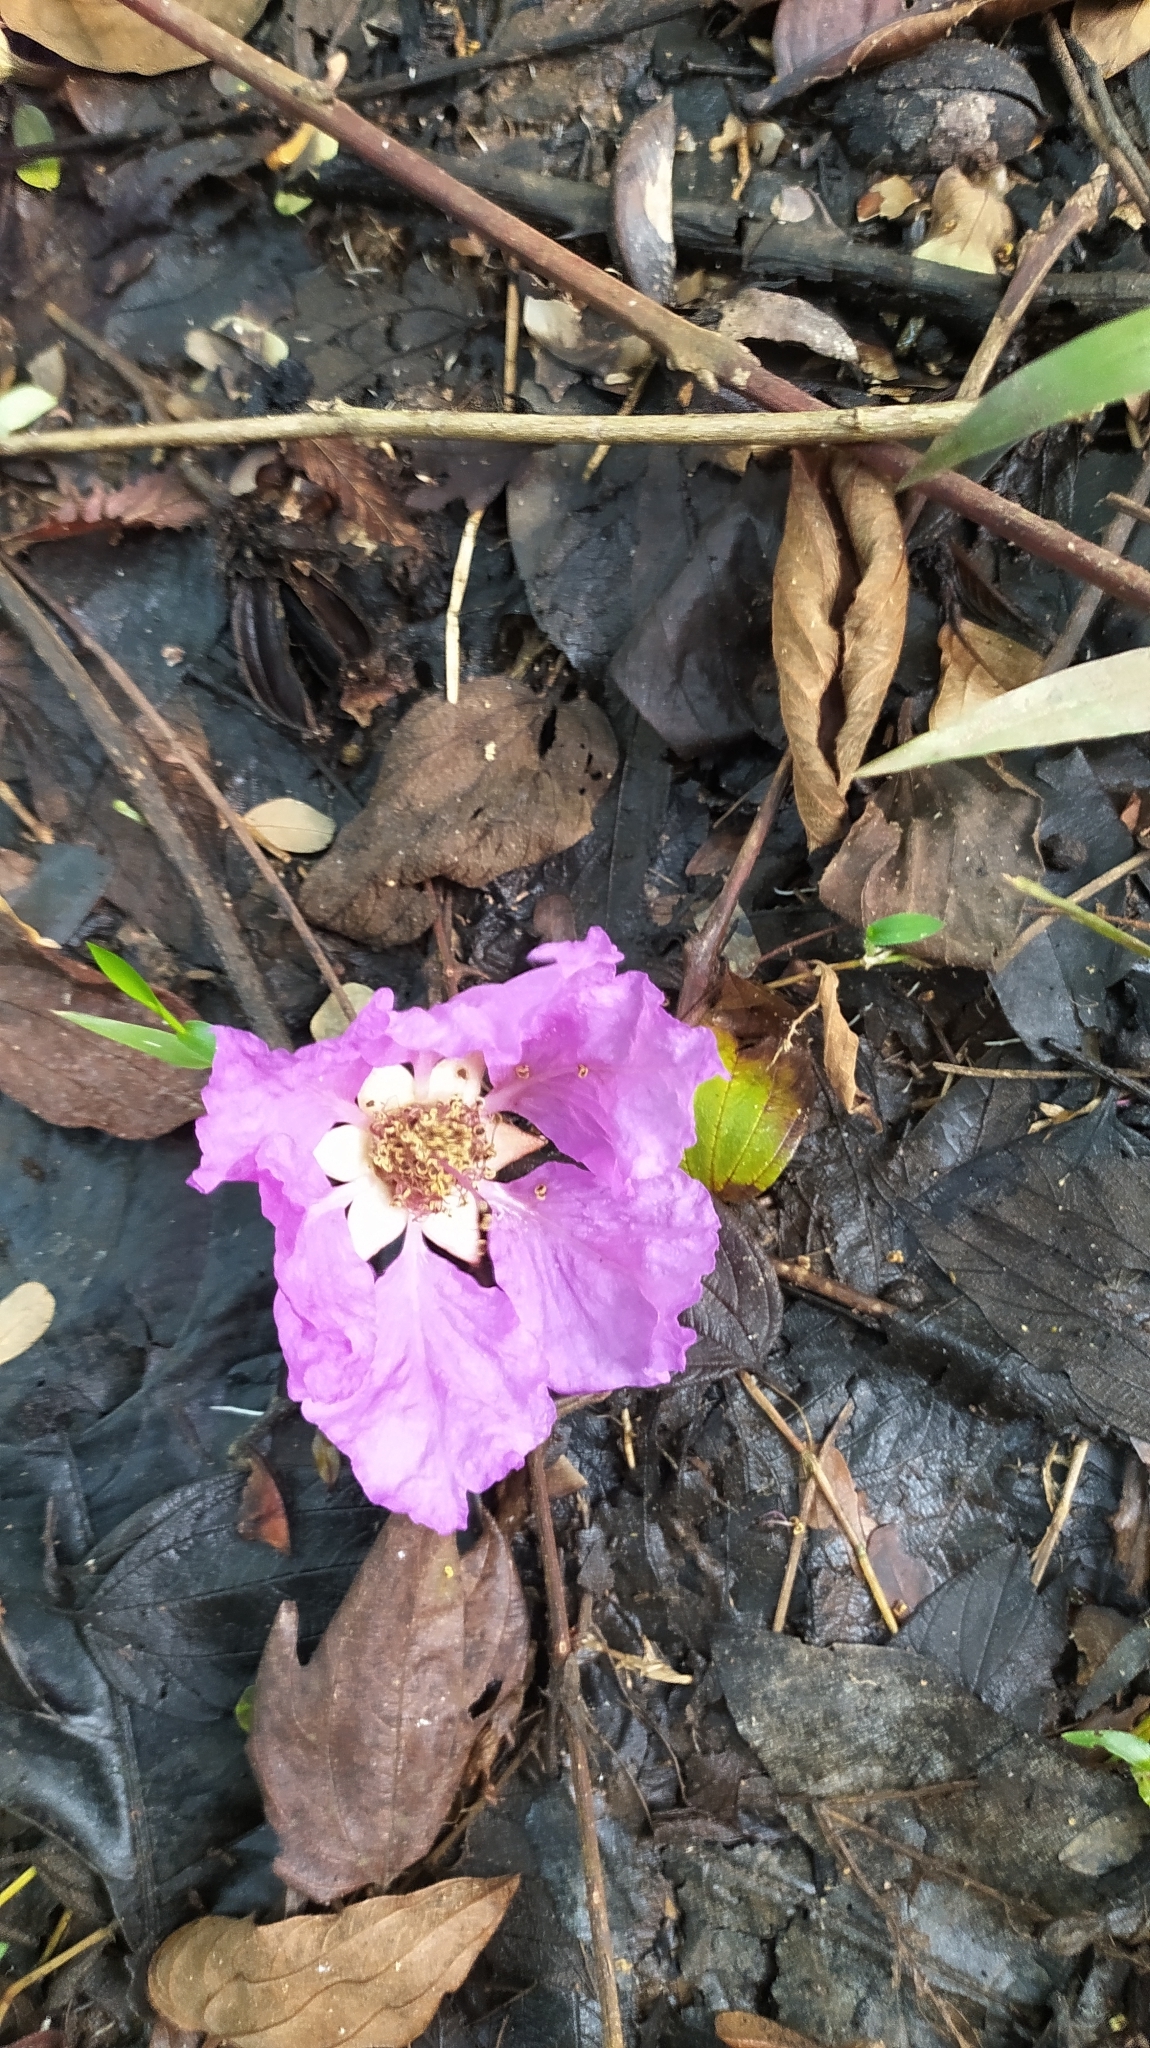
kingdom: Plantae
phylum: Tracheophyta
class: Magnoliopsida
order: Myrtales
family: Lythraceae
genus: Lagerstroemia
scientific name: Lagerstroemia speciosa
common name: Queen's crape-myrtle
